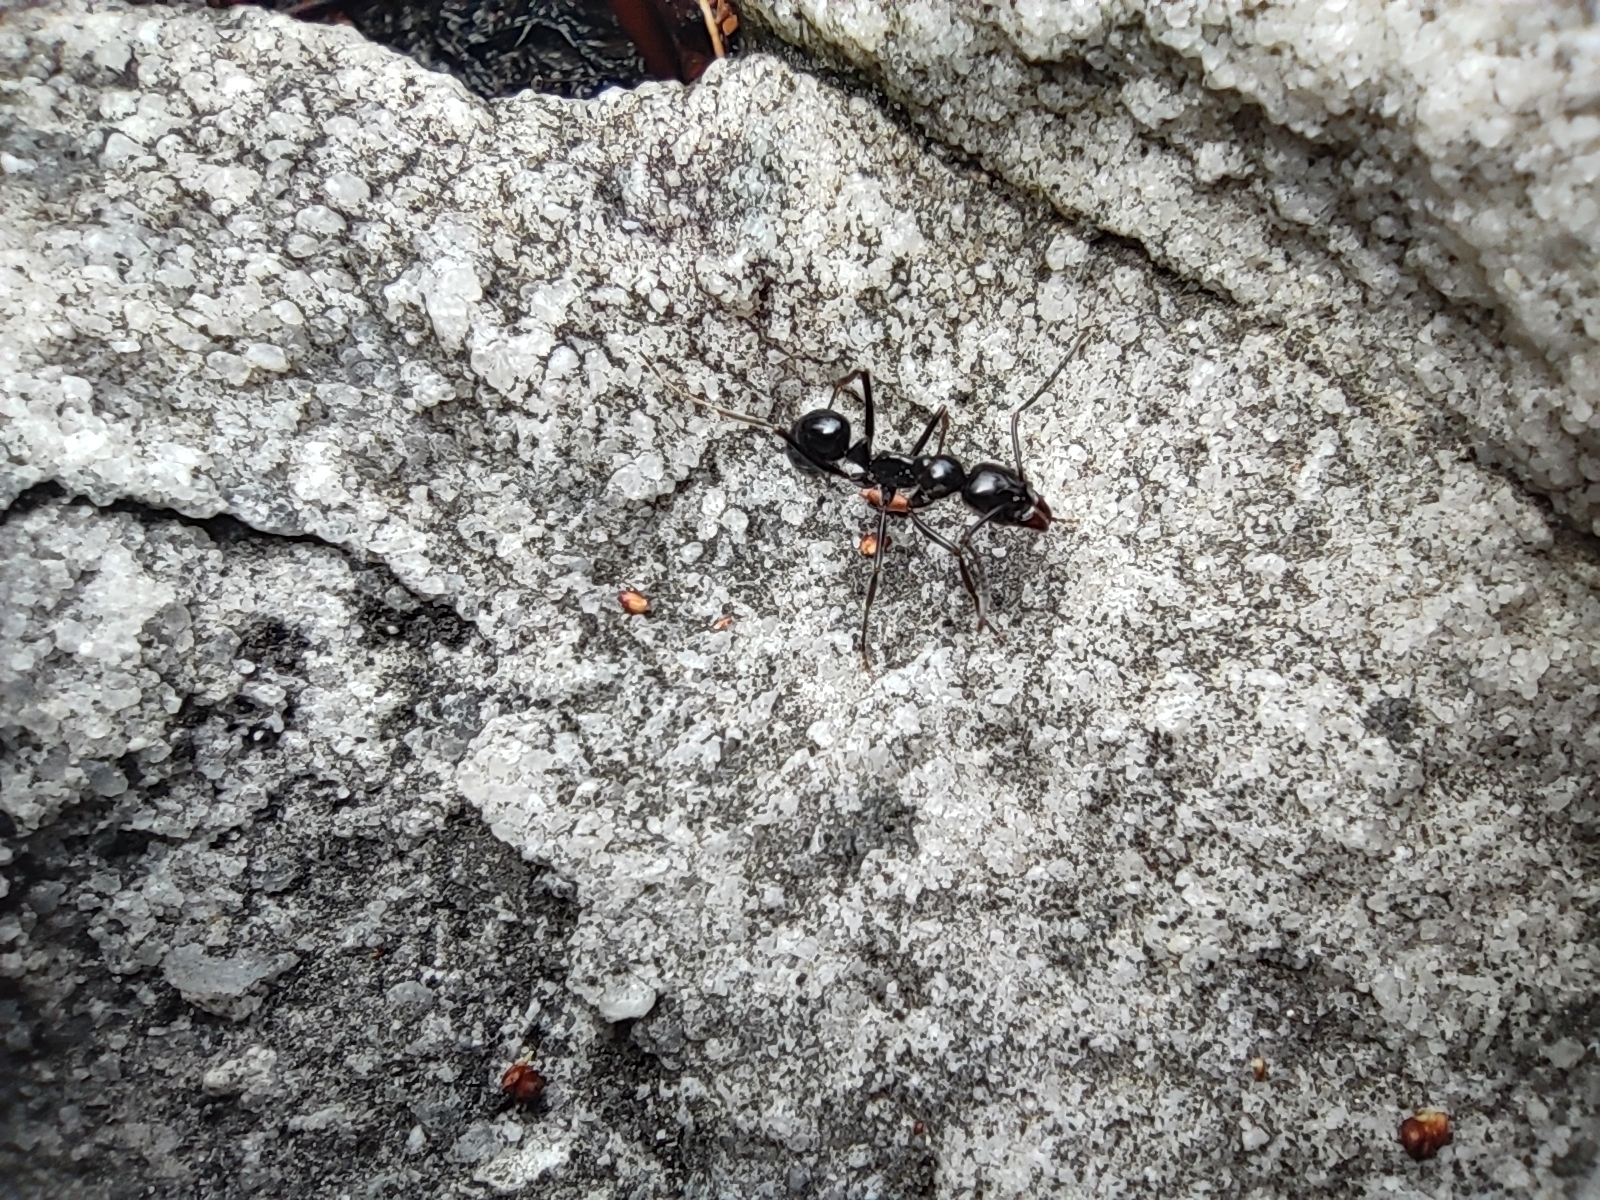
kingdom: Animalia
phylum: Arthropoda
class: Insecta
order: Hymenoptera
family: Formicidae
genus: Hagensia
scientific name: Hagensia
